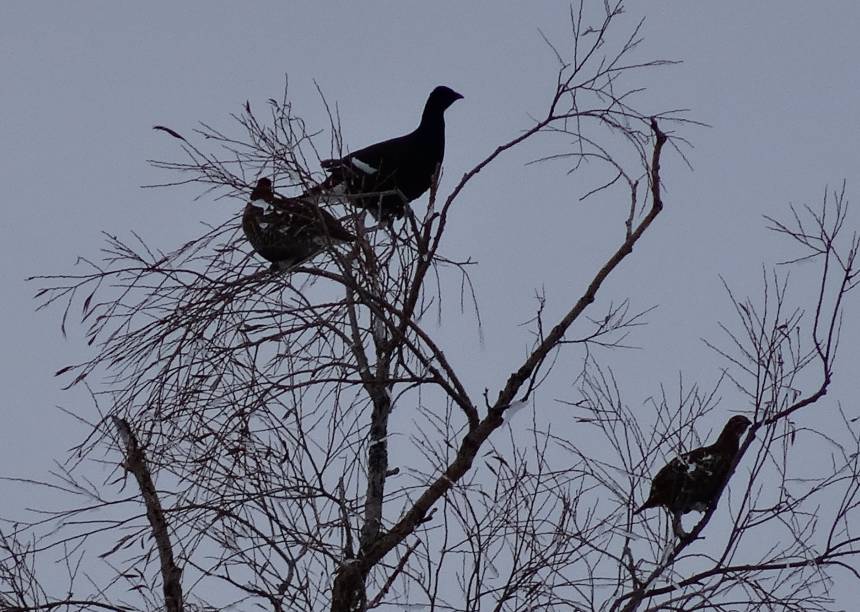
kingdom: Animalia
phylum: Chordata
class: Aves
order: Galliformes
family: Phasianidae
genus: Lyrurus
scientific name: Lyrurus tetrix
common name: Black grouse
